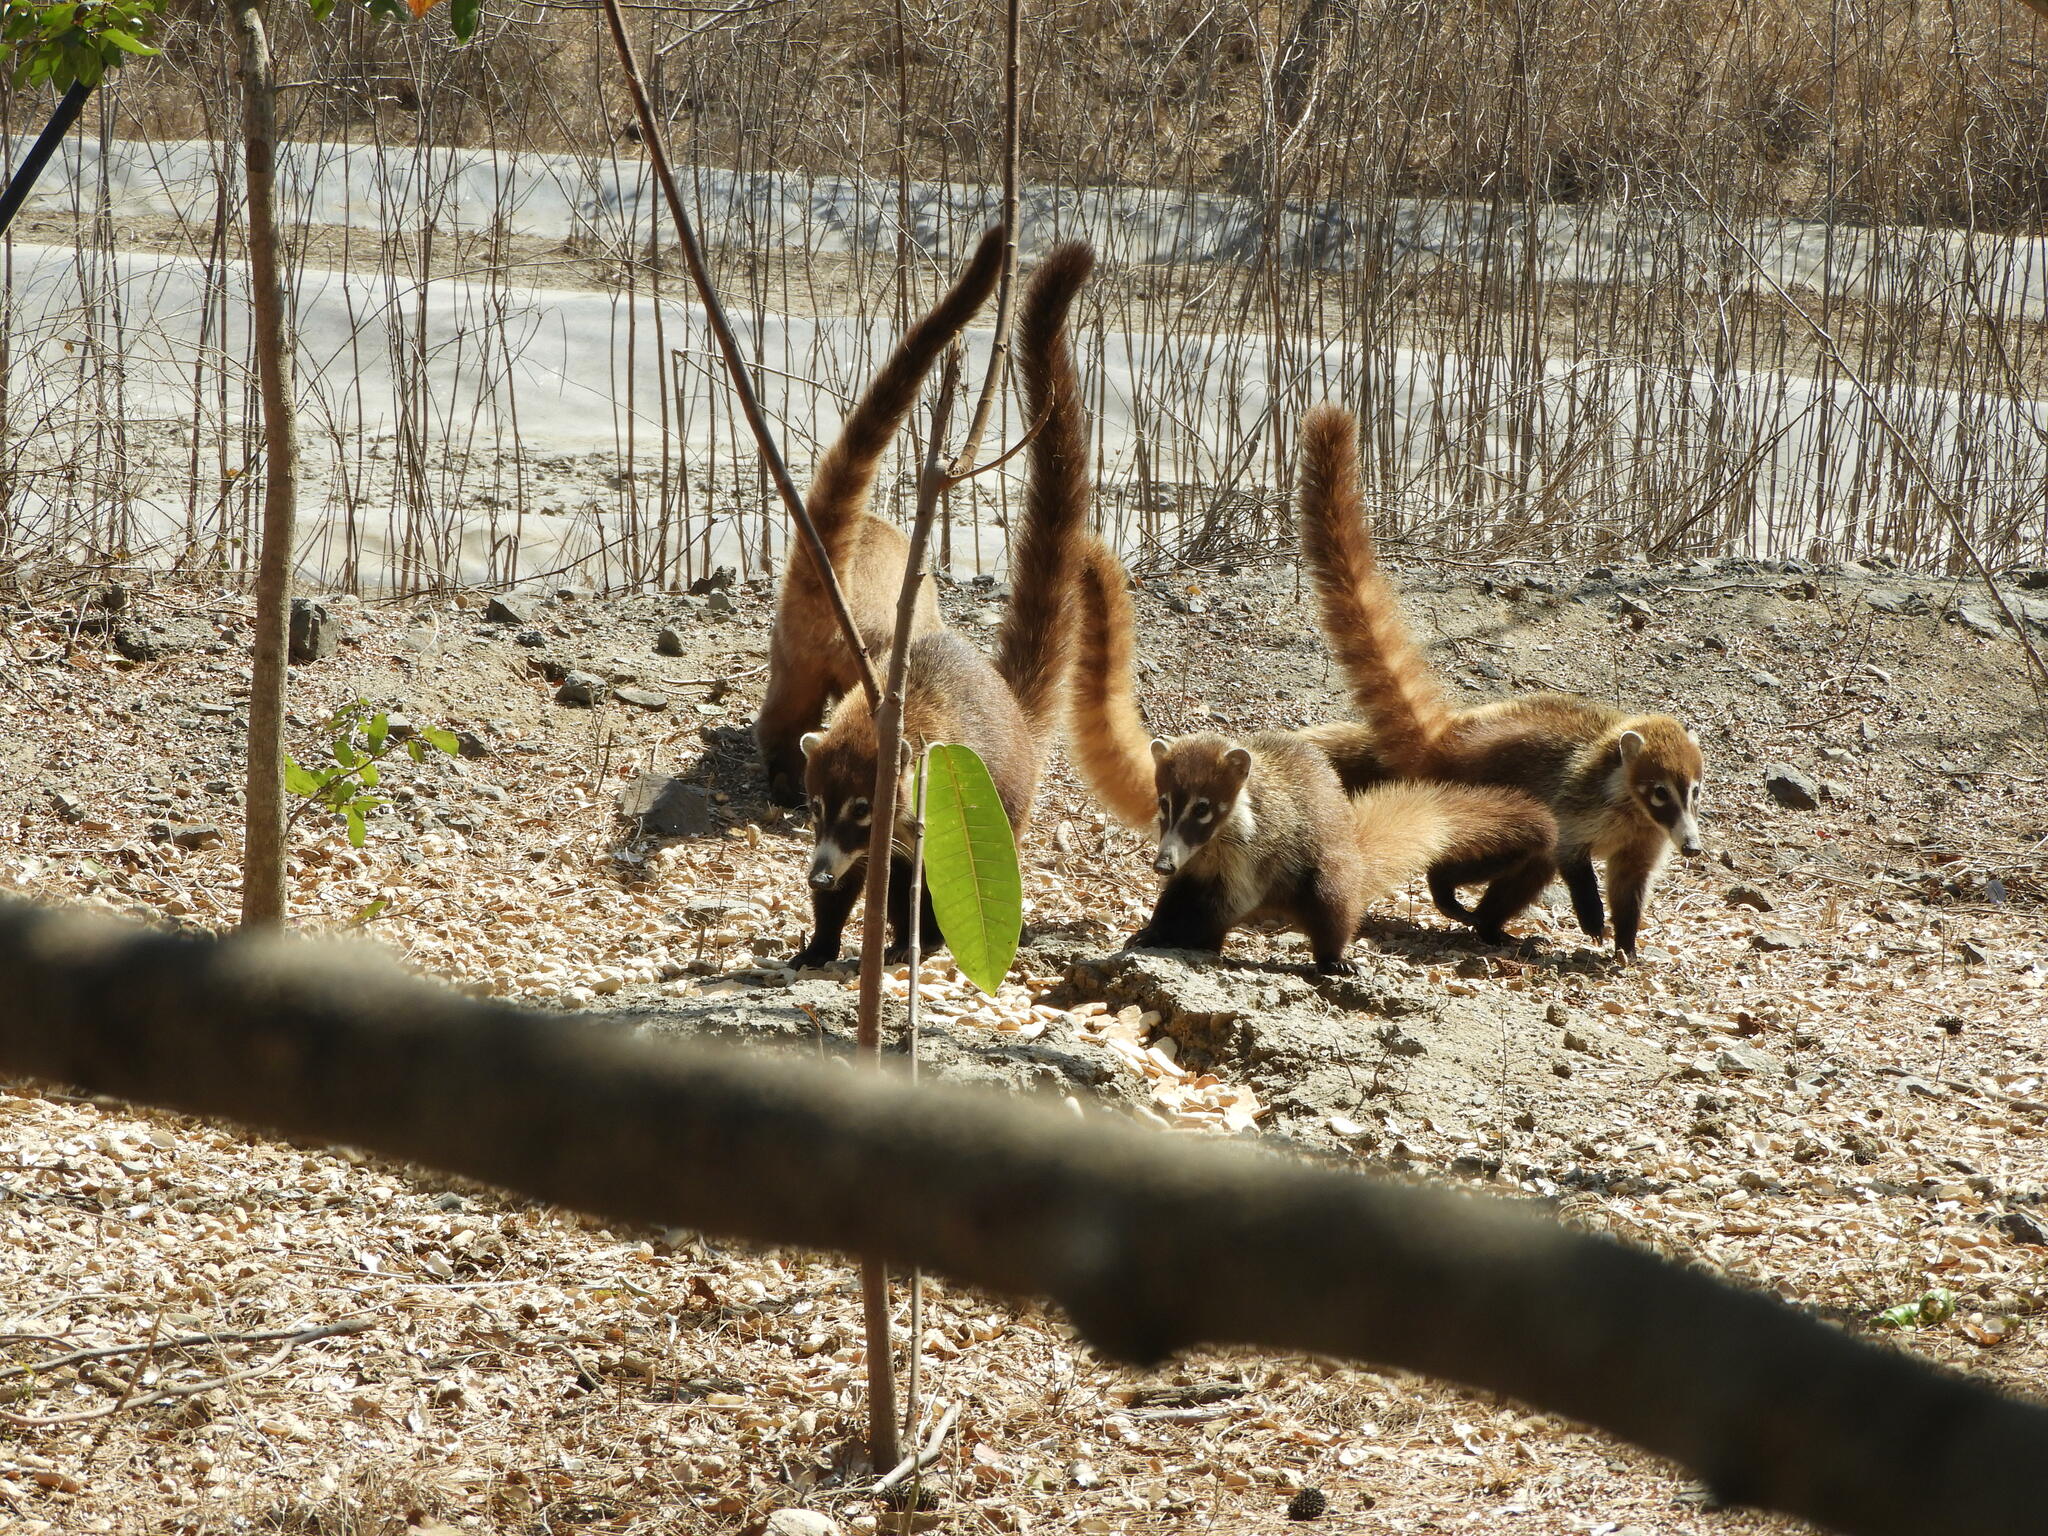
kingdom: Animalia
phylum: Chordata
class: Mammalia
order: Carnivora
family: Procyonidae
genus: Nasua
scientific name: Nasua narica
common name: White-nosed coati
